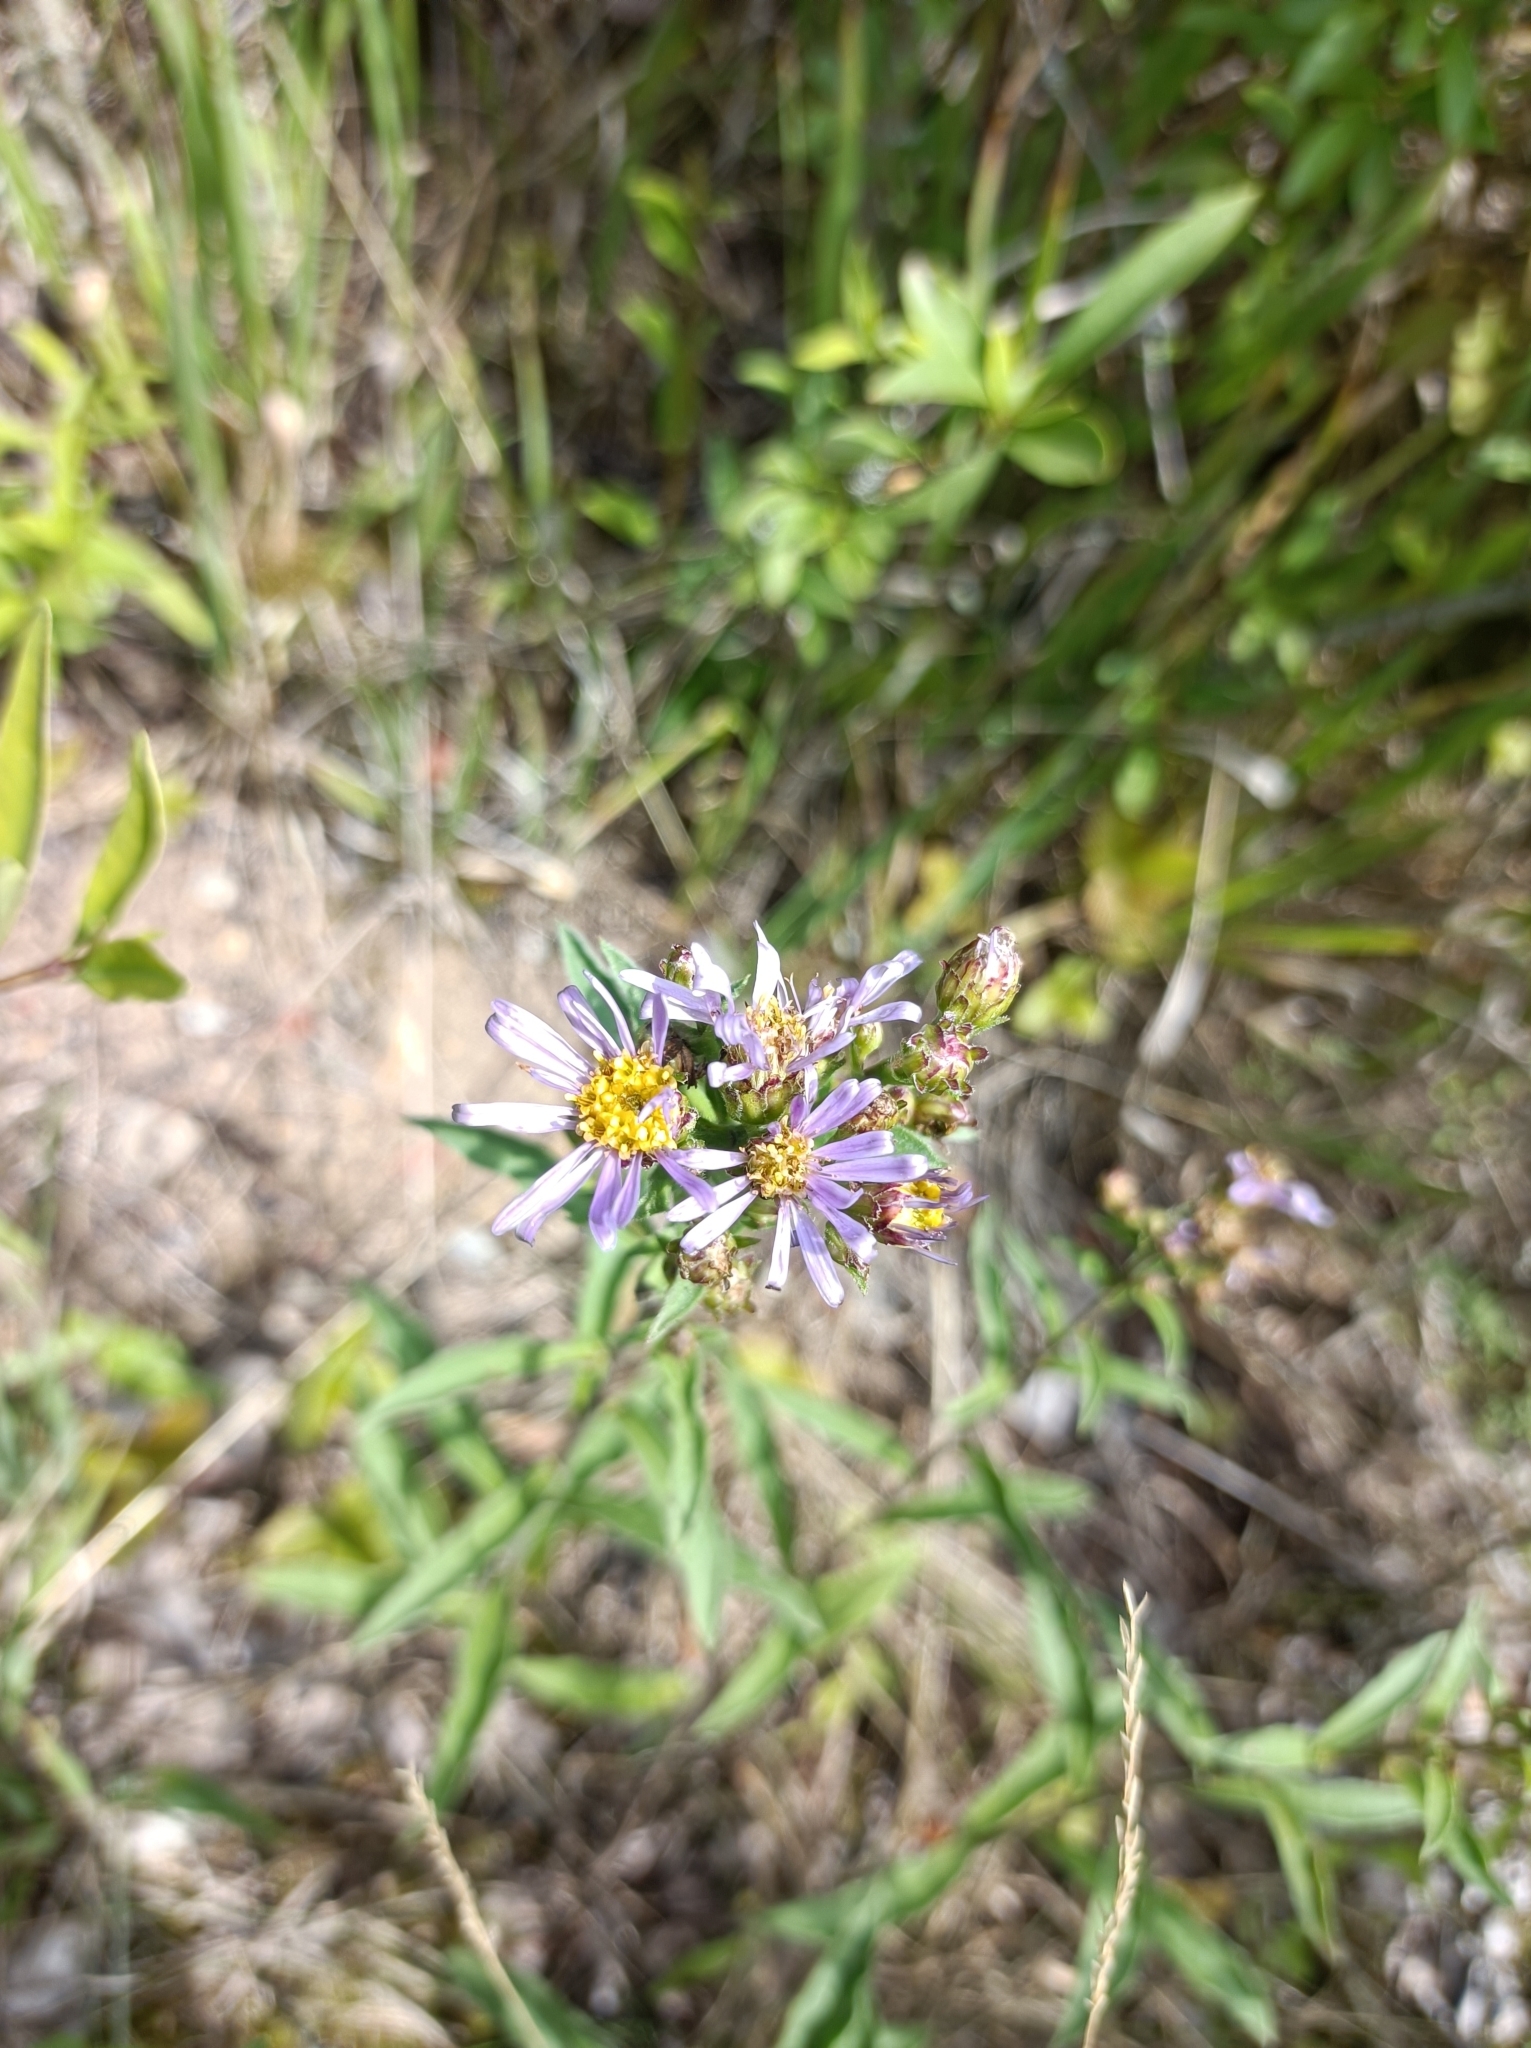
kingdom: Plantae
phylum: Tracheophyta
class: Magnoliopsida
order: Asterales
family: Asteraceae
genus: Aster
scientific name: Aster amellus
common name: European michaelmas daisy
